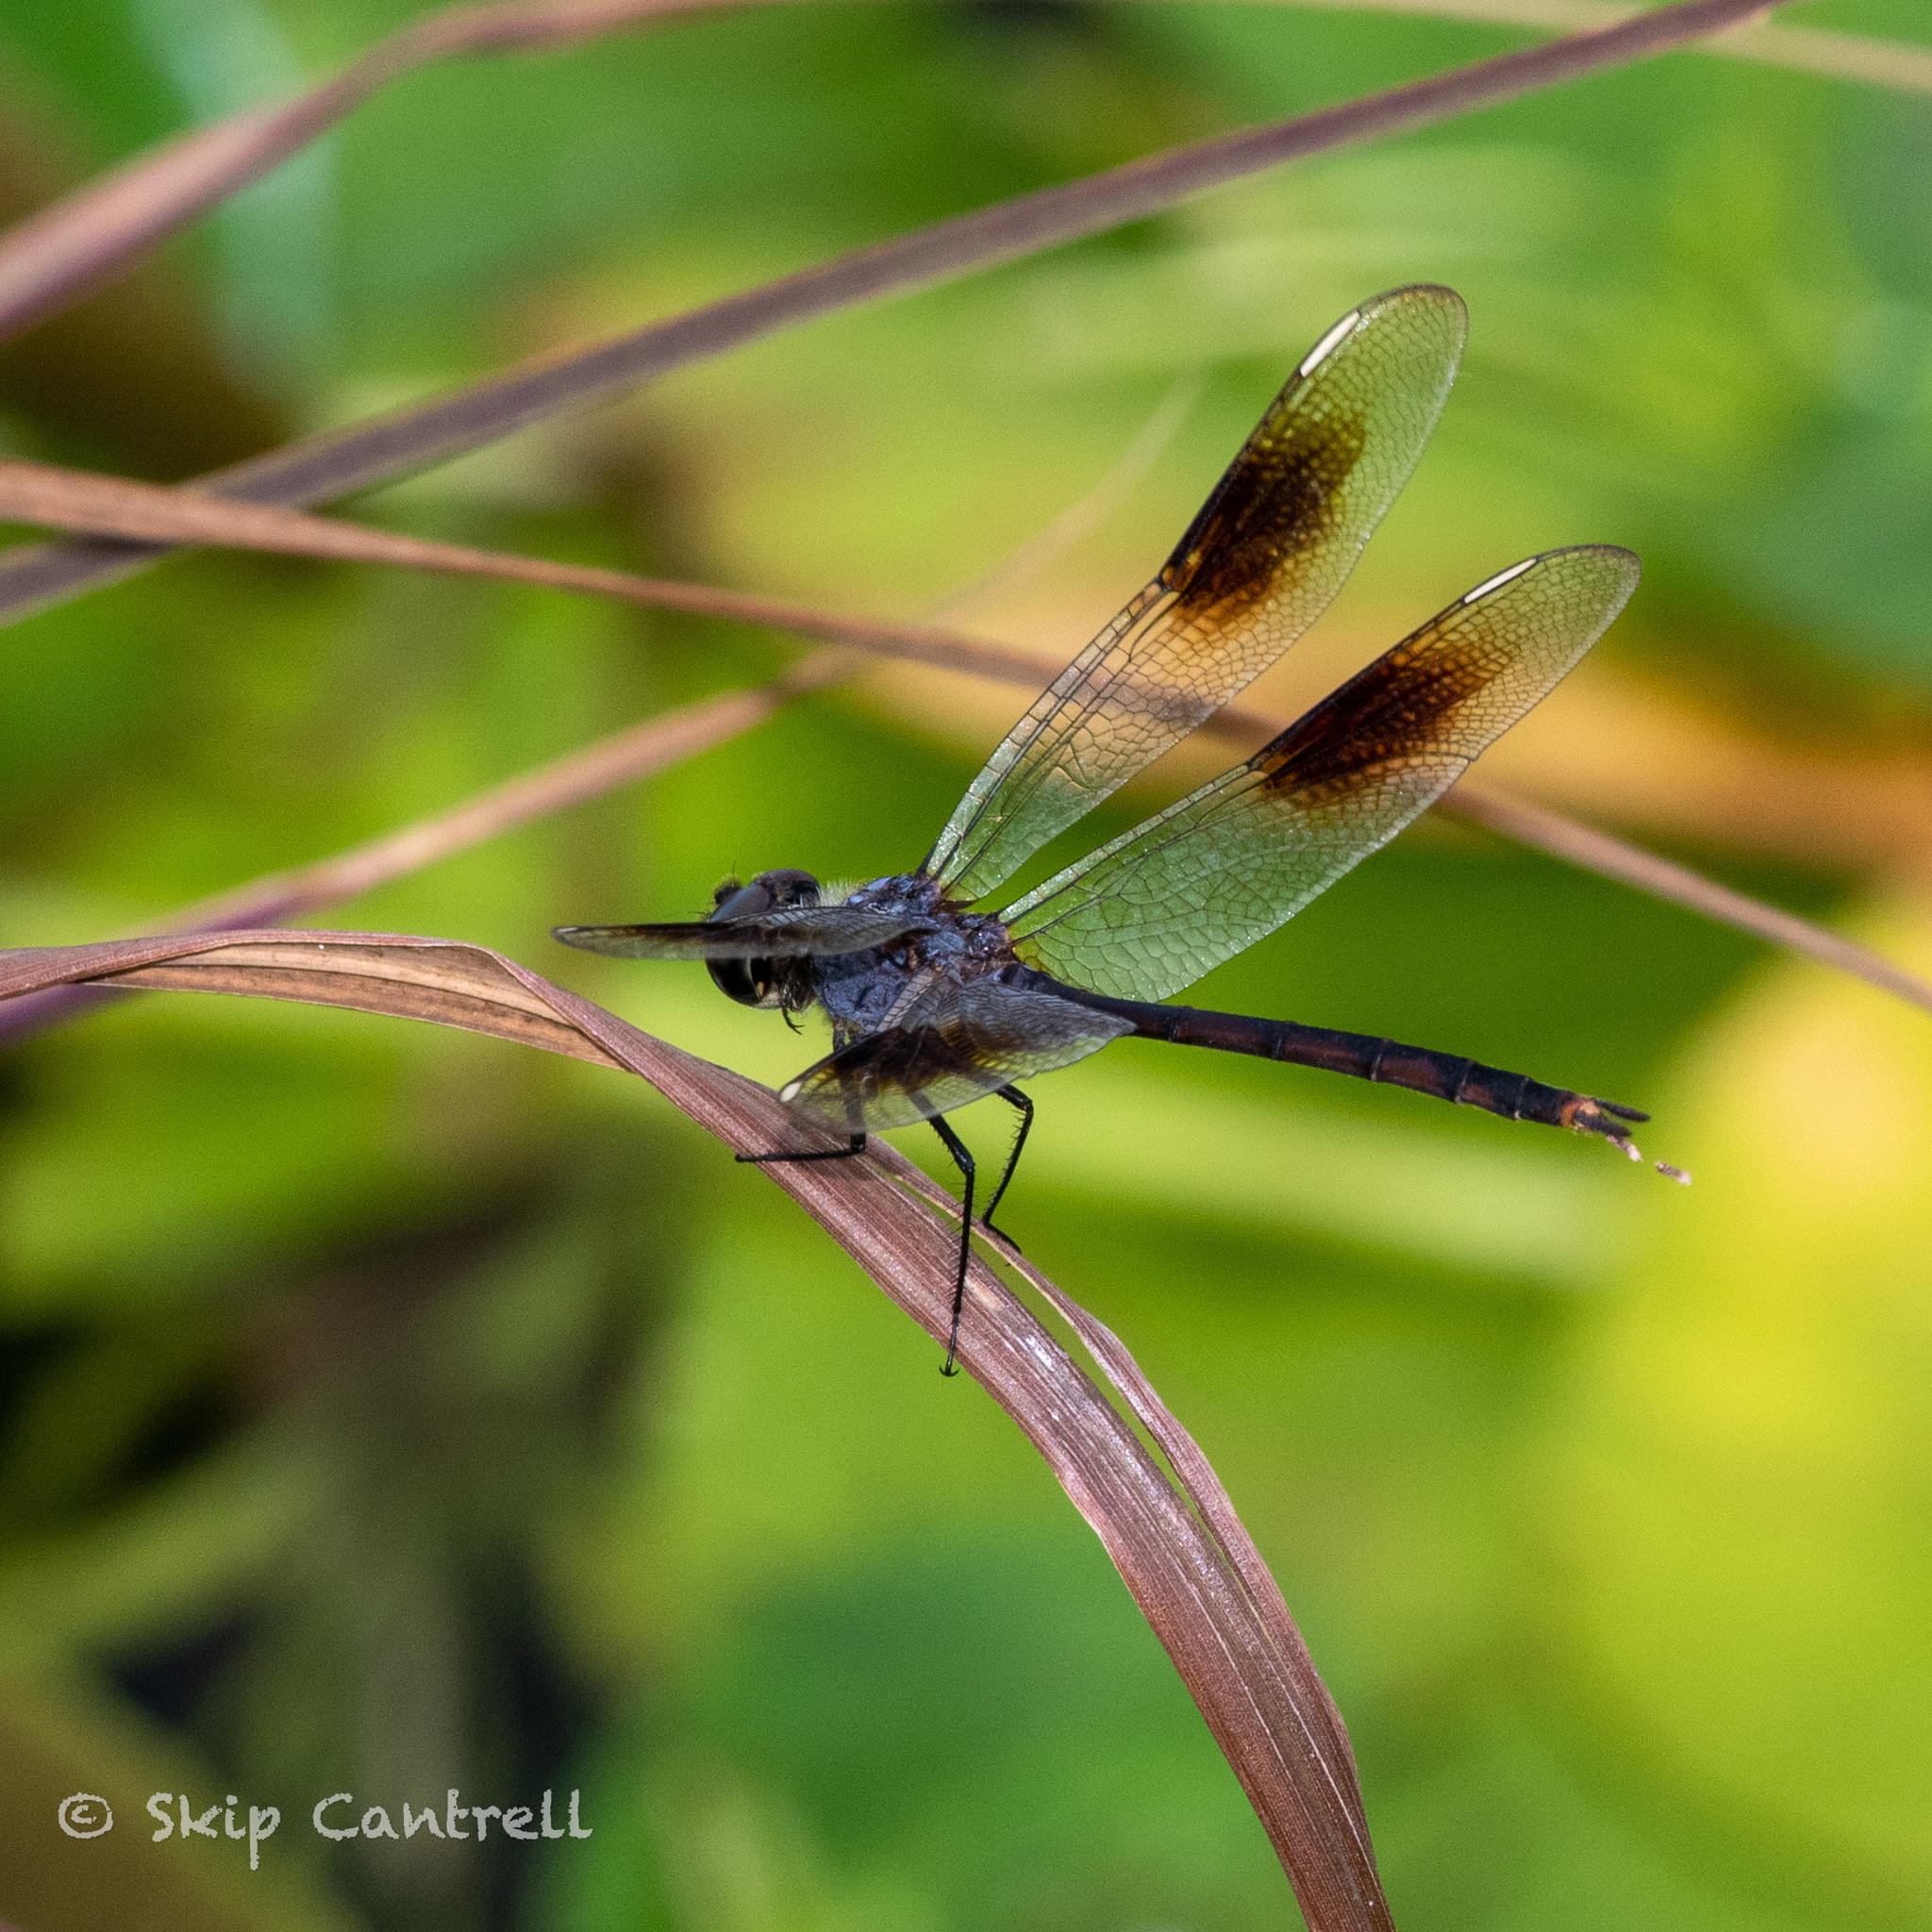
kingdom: Animalia
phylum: Arthropoda
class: Insecta
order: Odonata
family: Libellulidae
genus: Brachymesia
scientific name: Brachymesia gravida
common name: Four-spotted pennant
